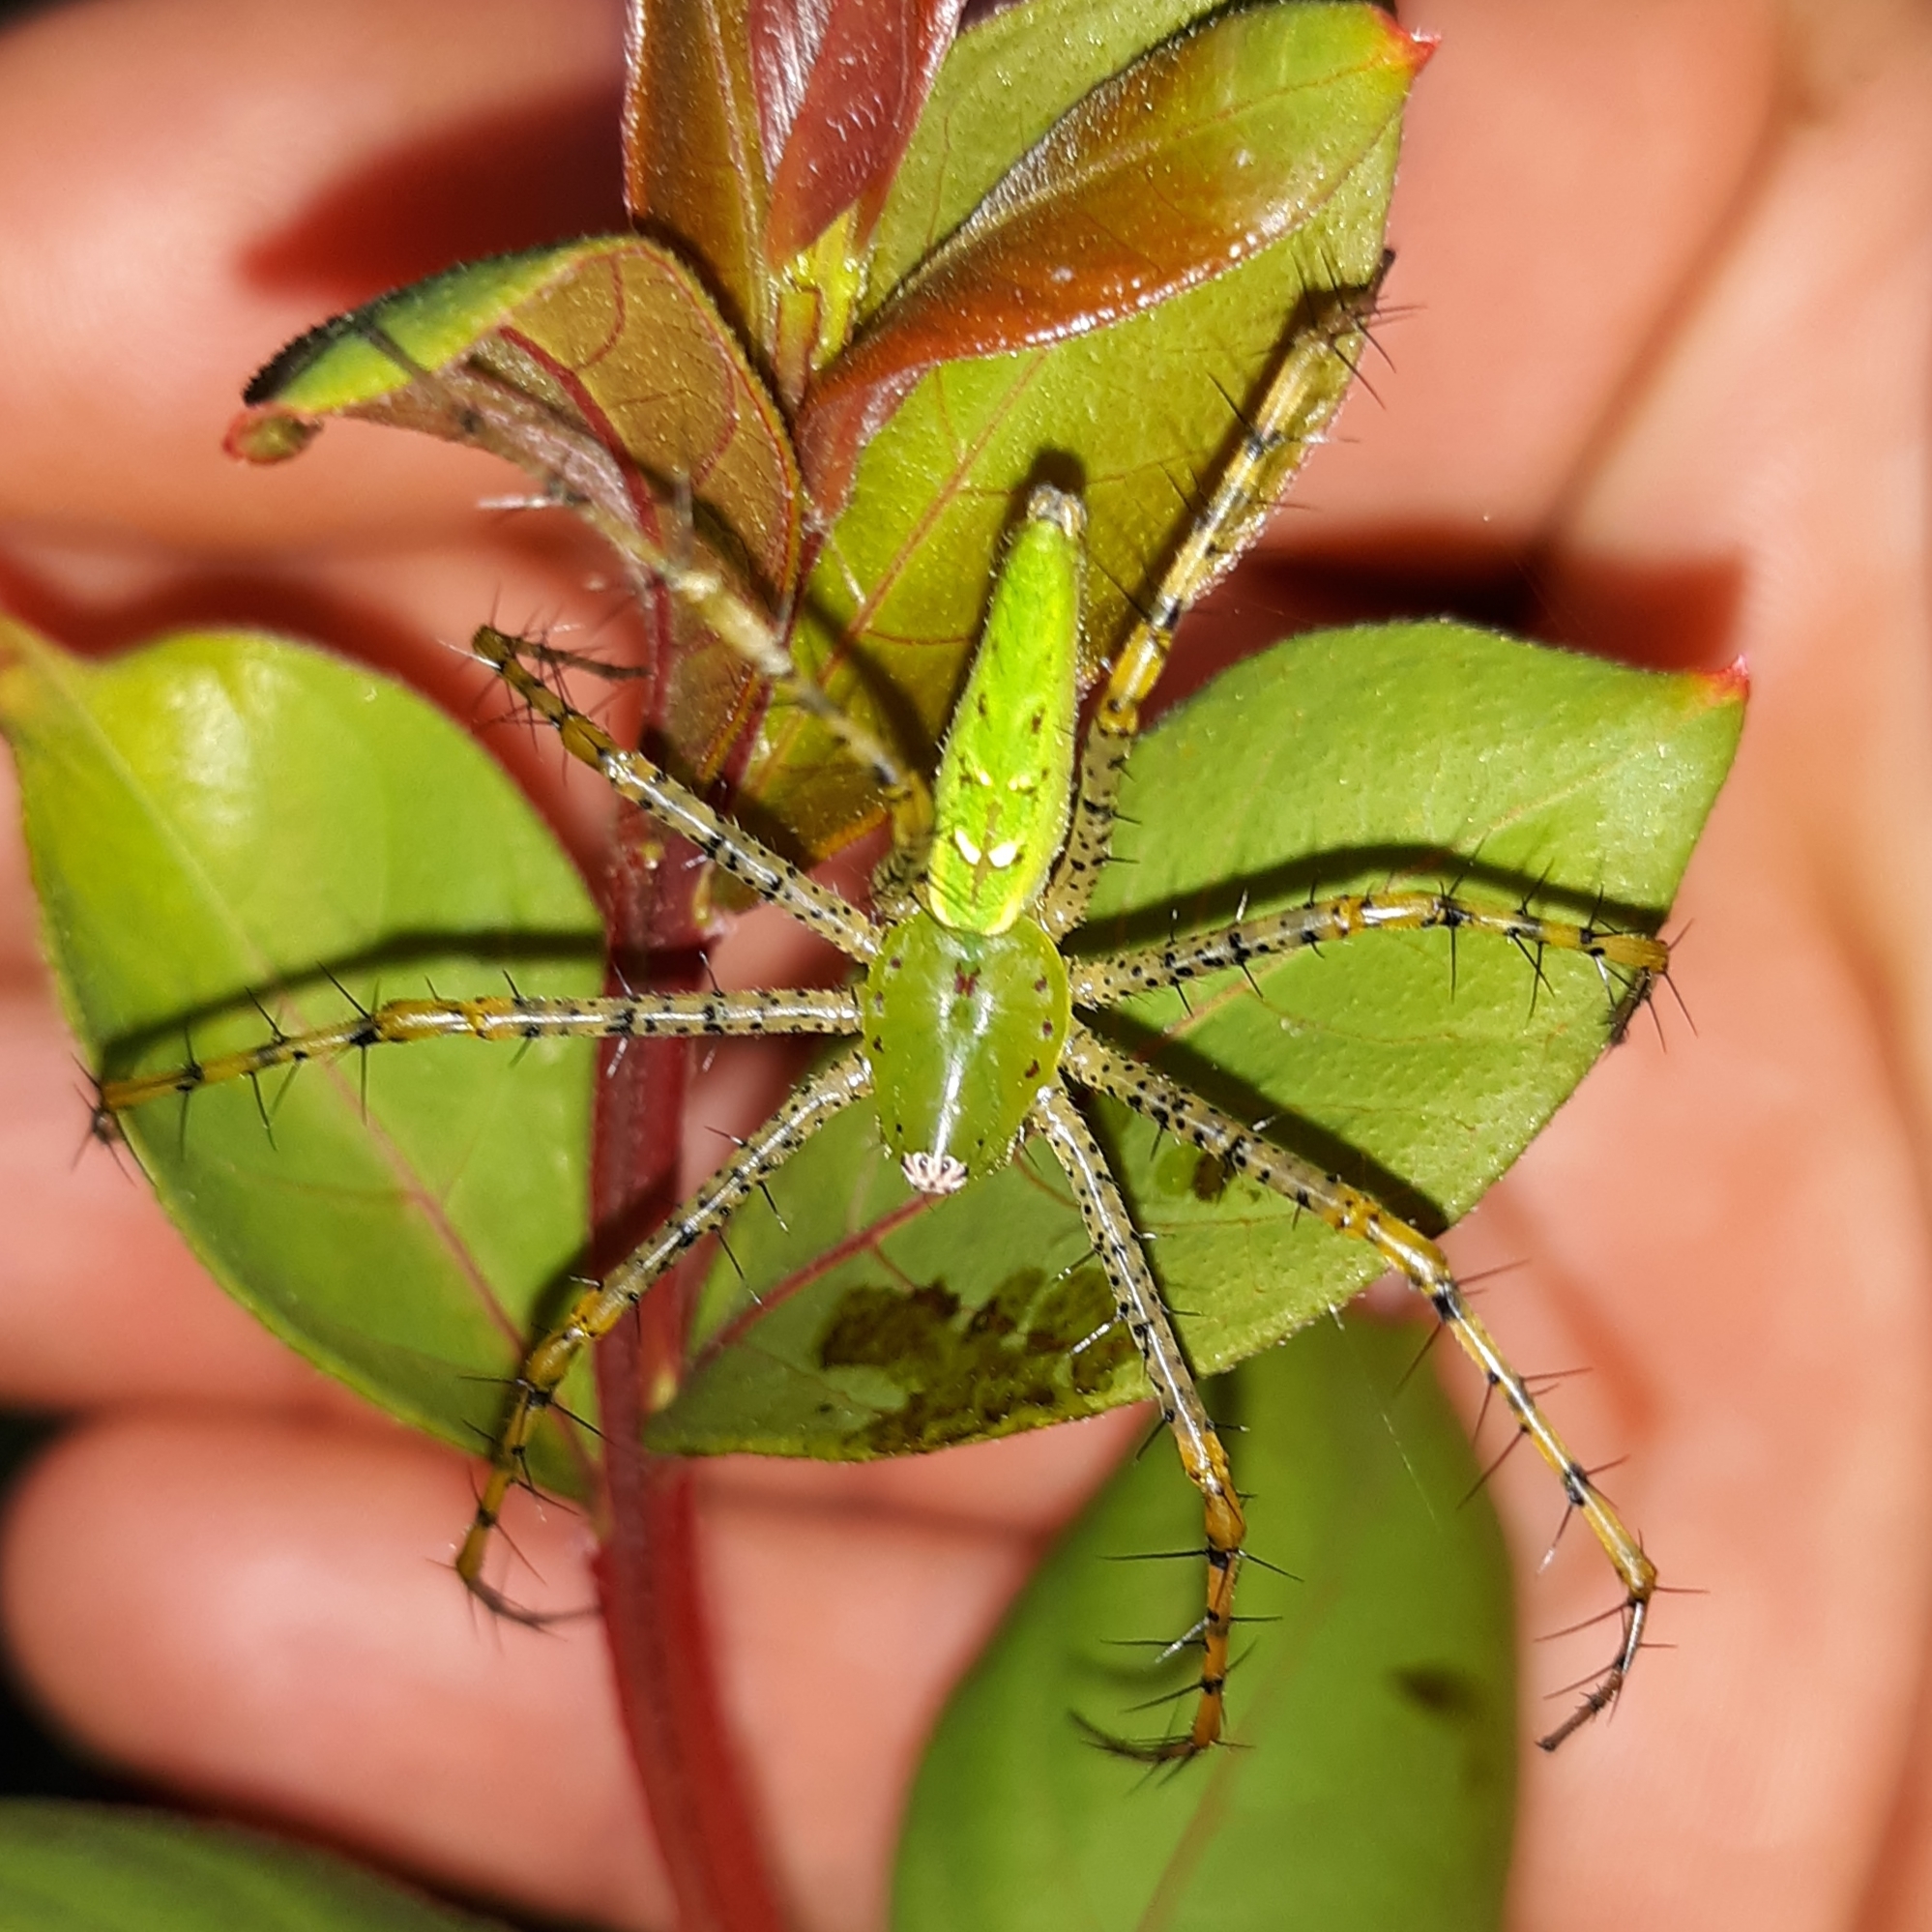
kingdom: Animalia
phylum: Arthropoda
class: Arachnida
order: Araneae
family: Oxyopidae
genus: Peucetia
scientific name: Peucetia viridans
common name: Lynx spiders
